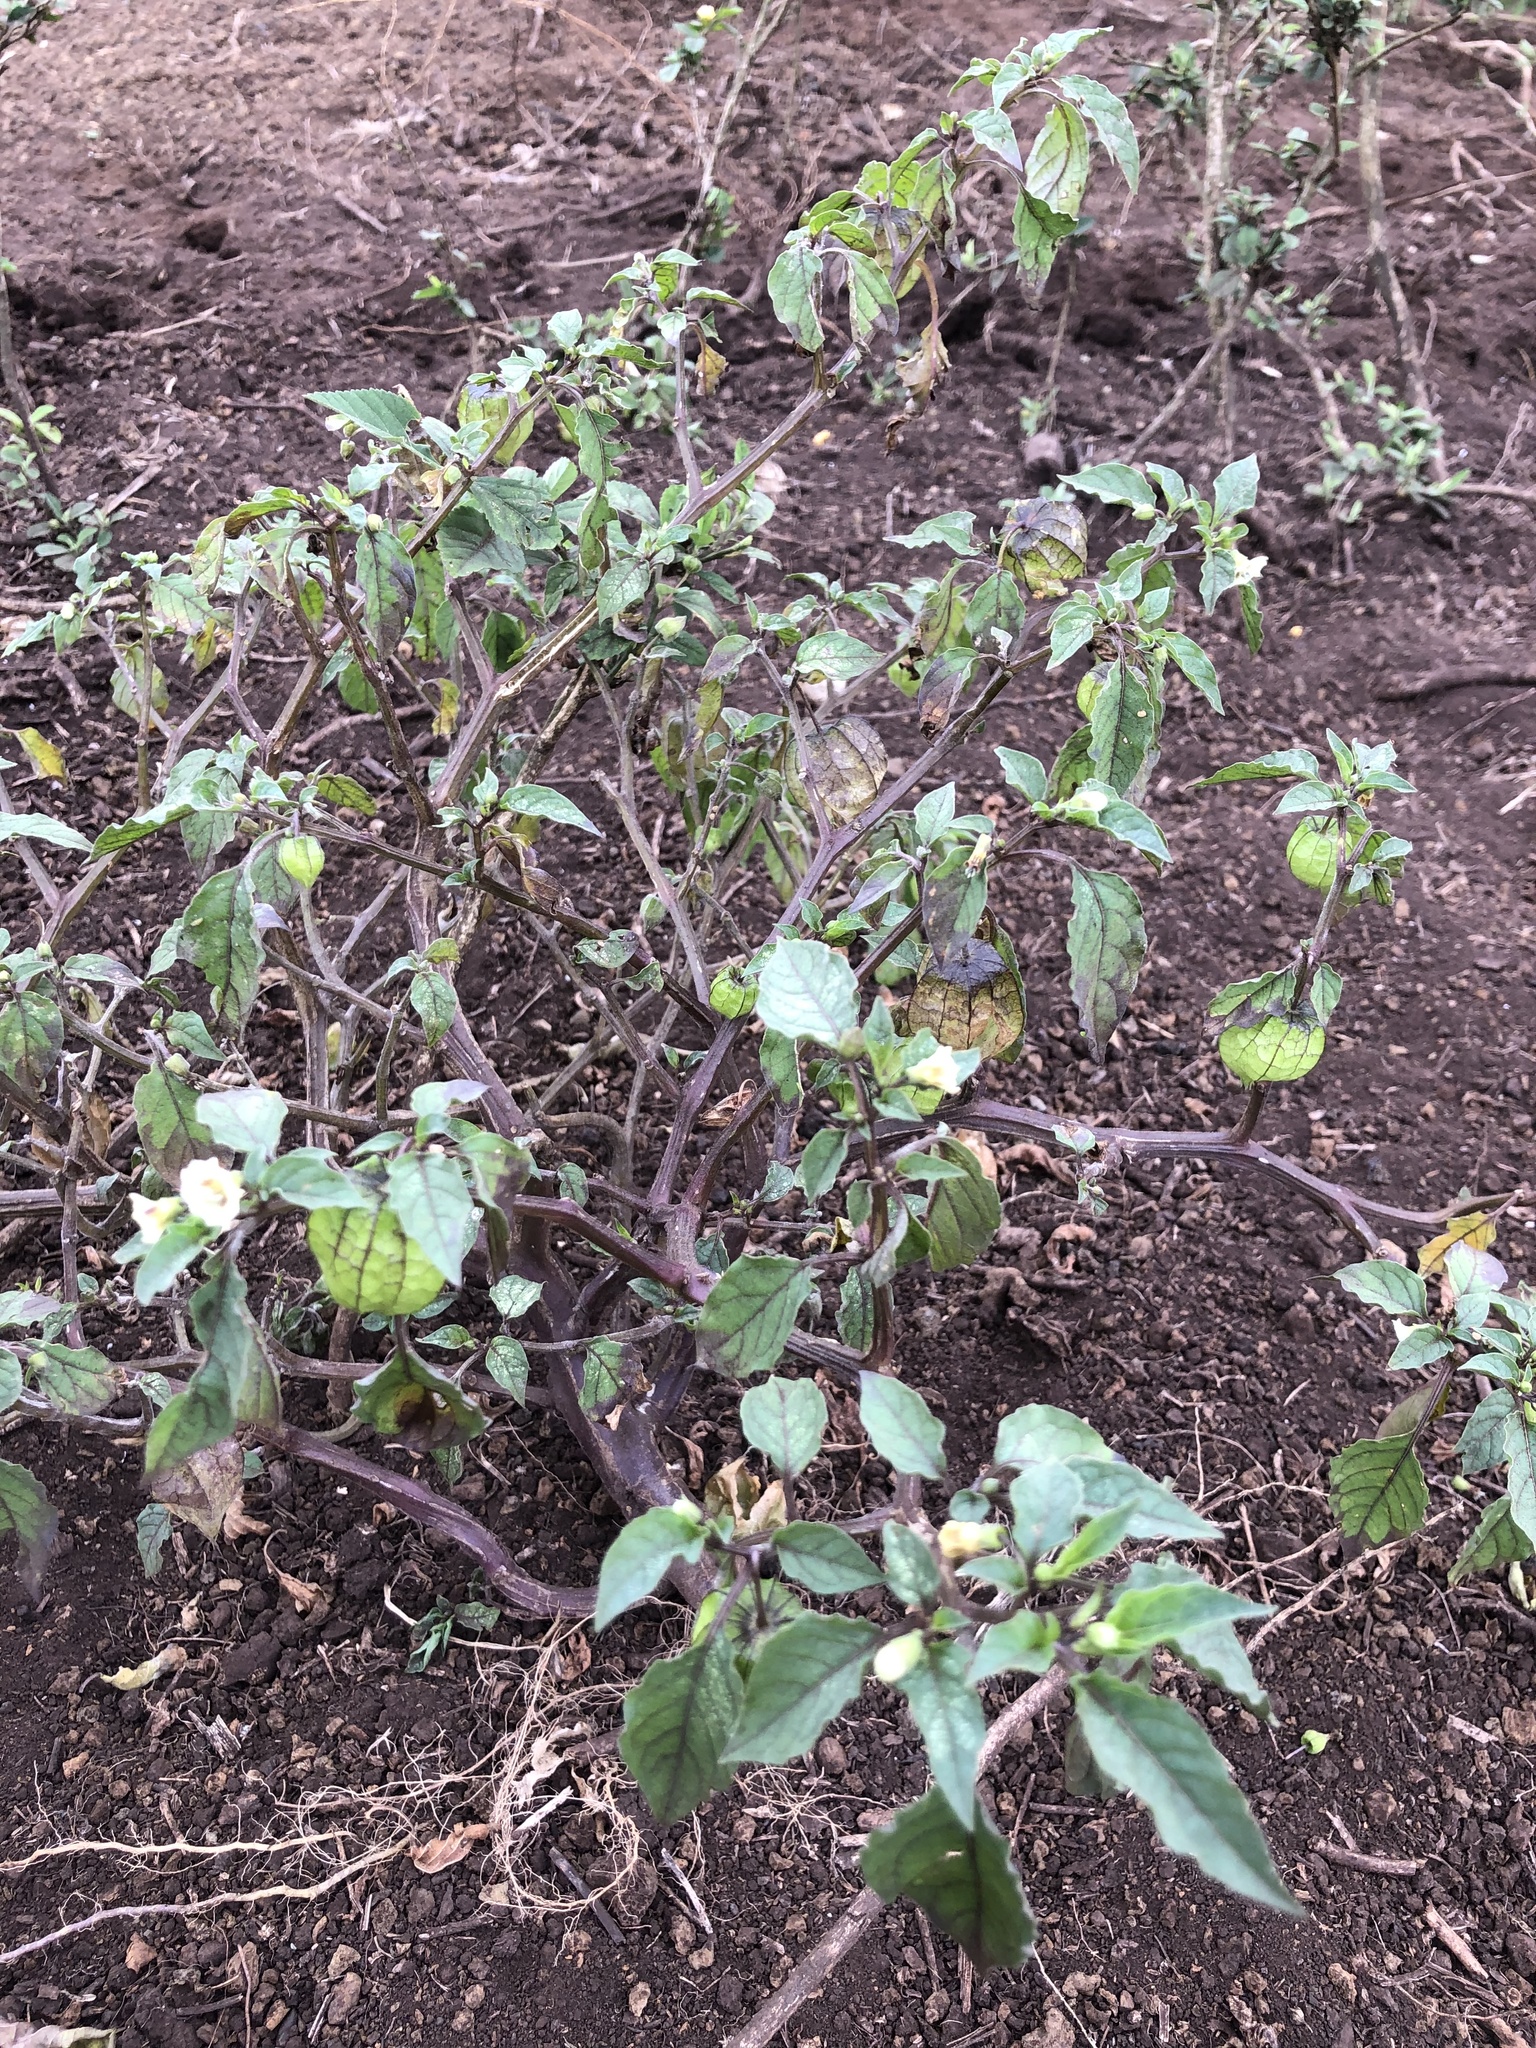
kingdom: Plantae
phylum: Tracheophyta
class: Magnoliopsida
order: Solanales
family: Solanaceae
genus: Physalis
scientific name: Physalis angulata
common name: Angular winter-cherry
